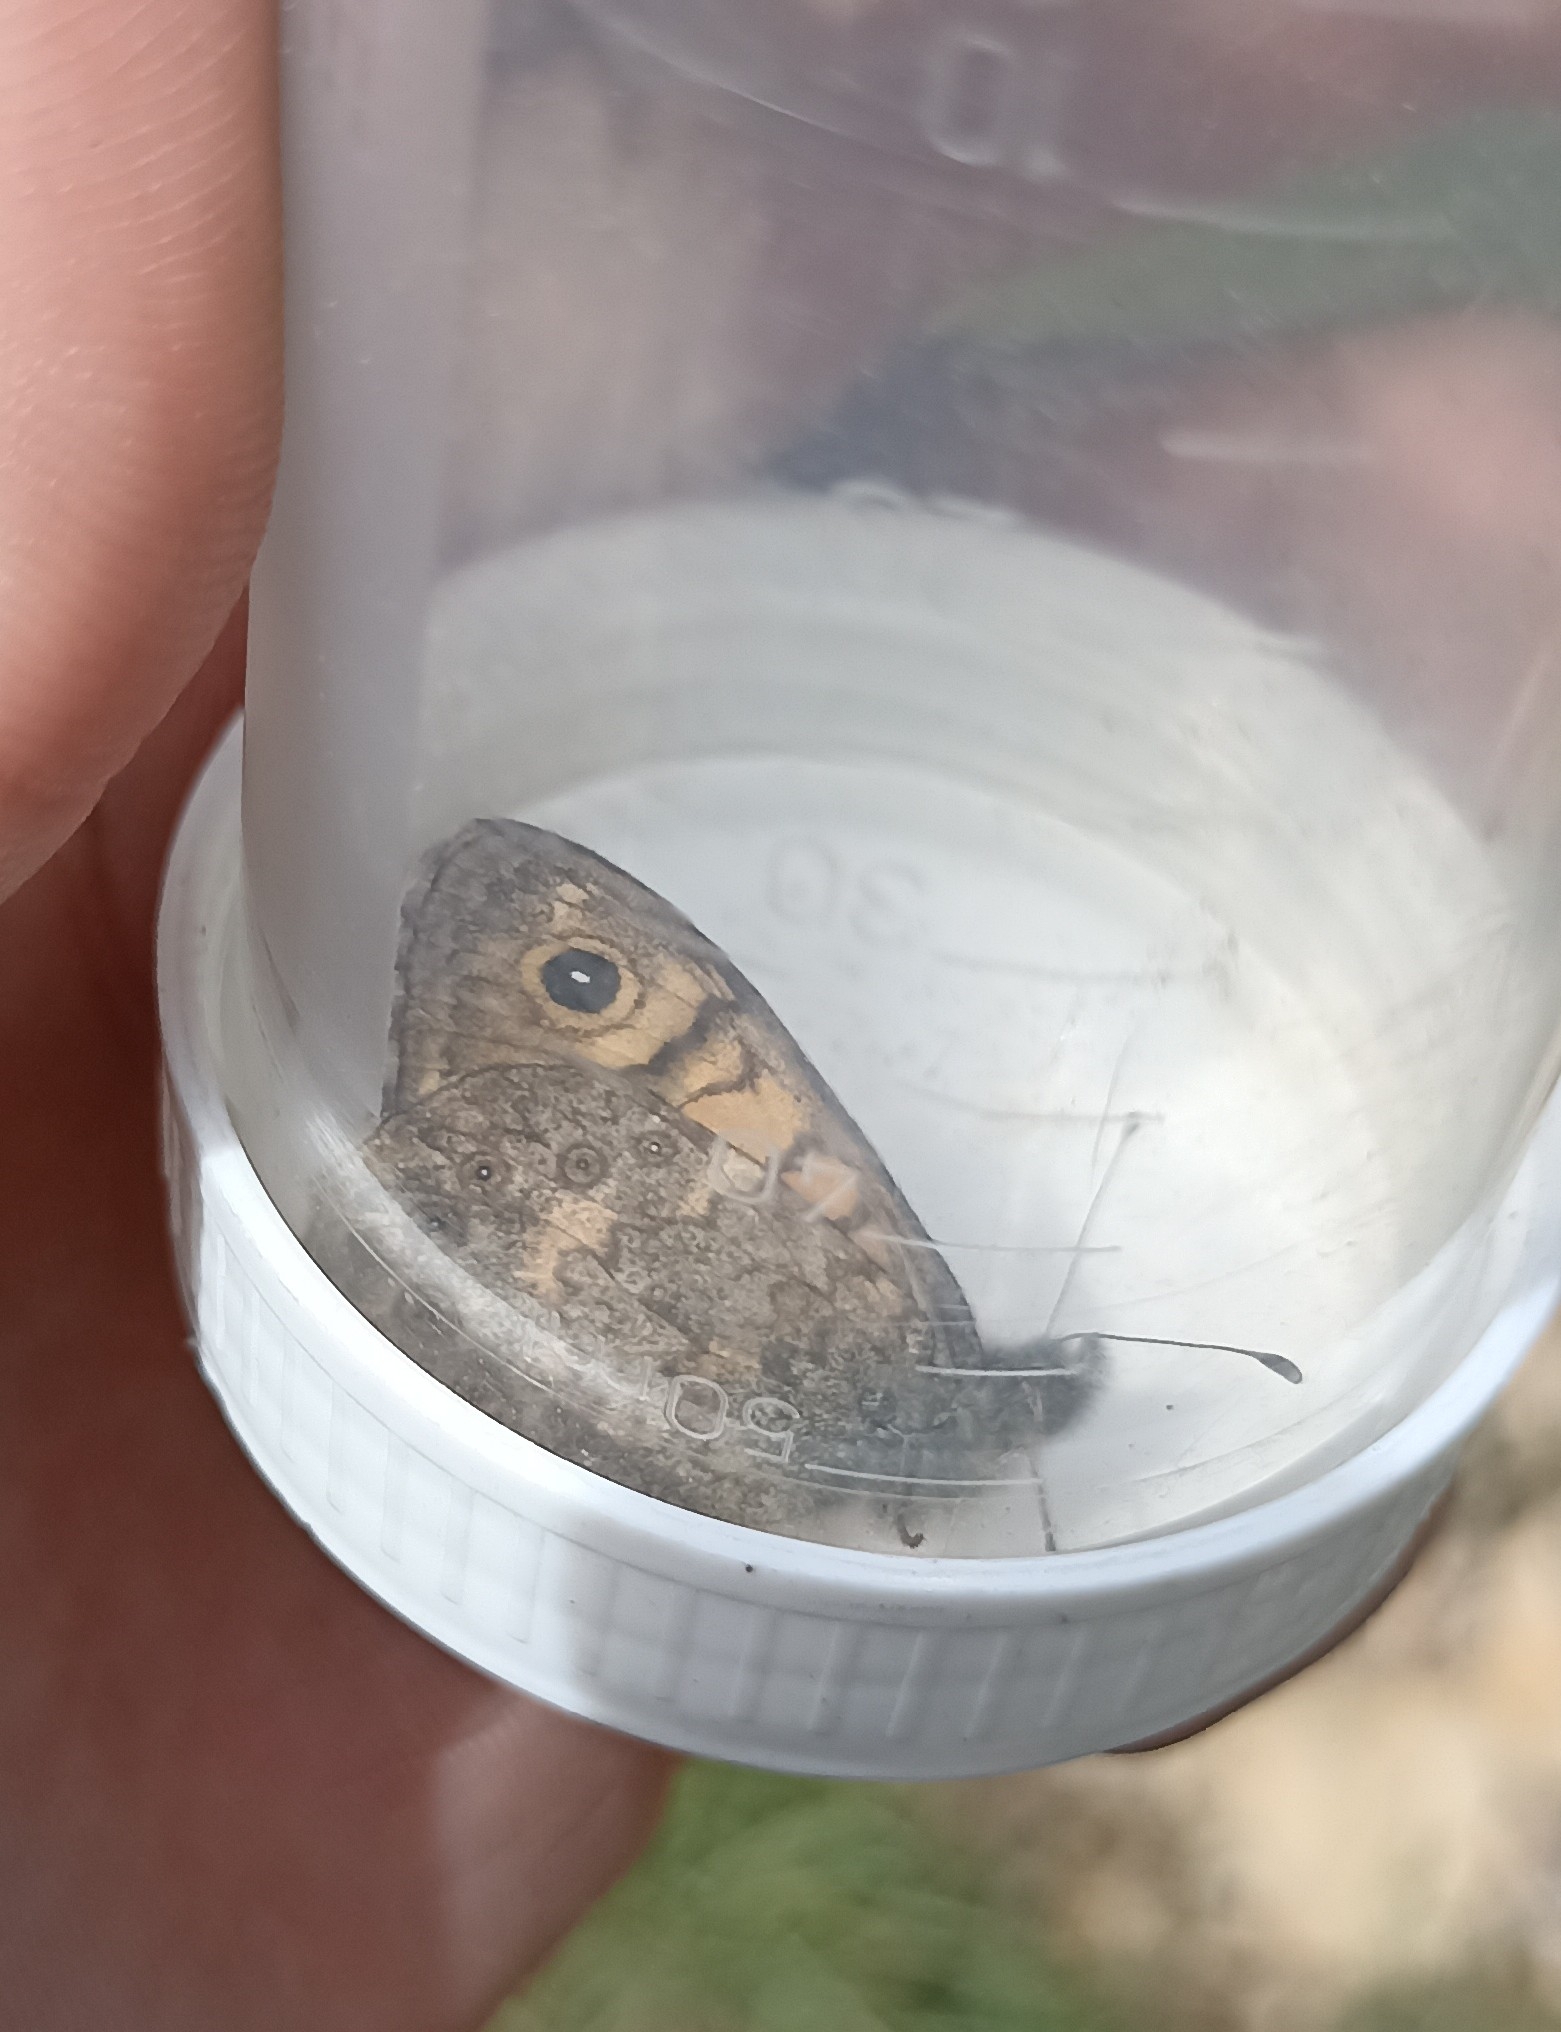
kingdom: Animalia
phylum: Arthropoda
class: Insecta
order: Lepidoptera
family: Nymphalidae
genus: Pararge
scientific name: Pararge Lasiommata megera
